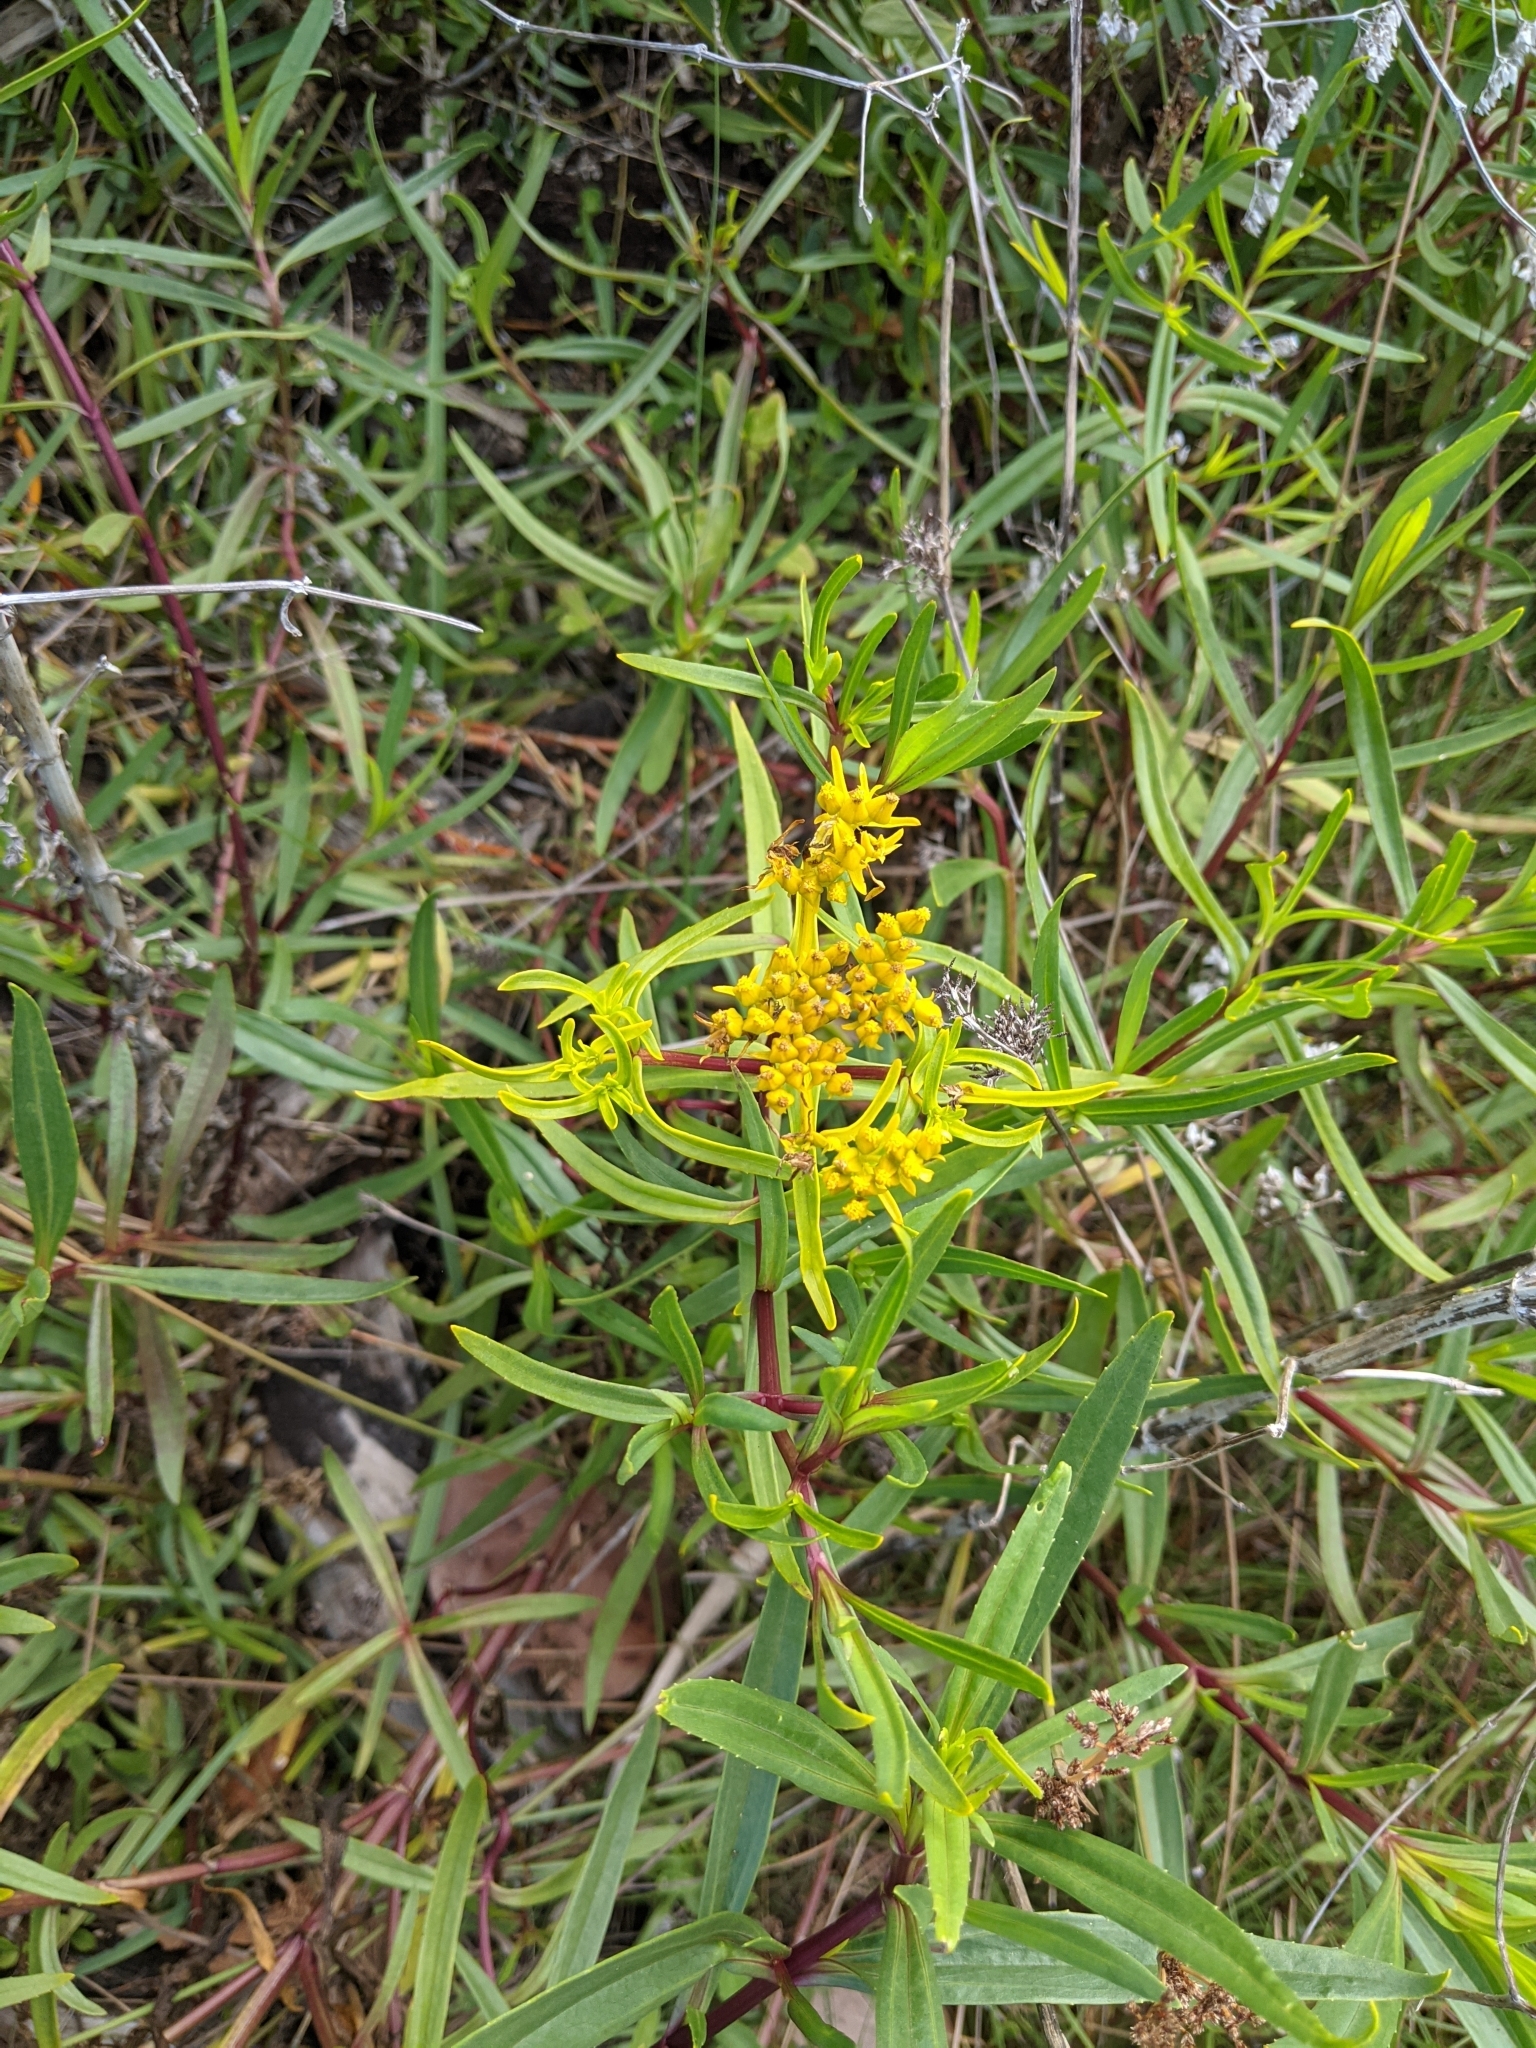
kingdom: Plantae
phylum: Tracheophyta
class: Magnoliopsida
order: Asterales
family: Asteraceae
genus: Flaveria
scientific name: Flaveria linearis
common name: Yellowtop
